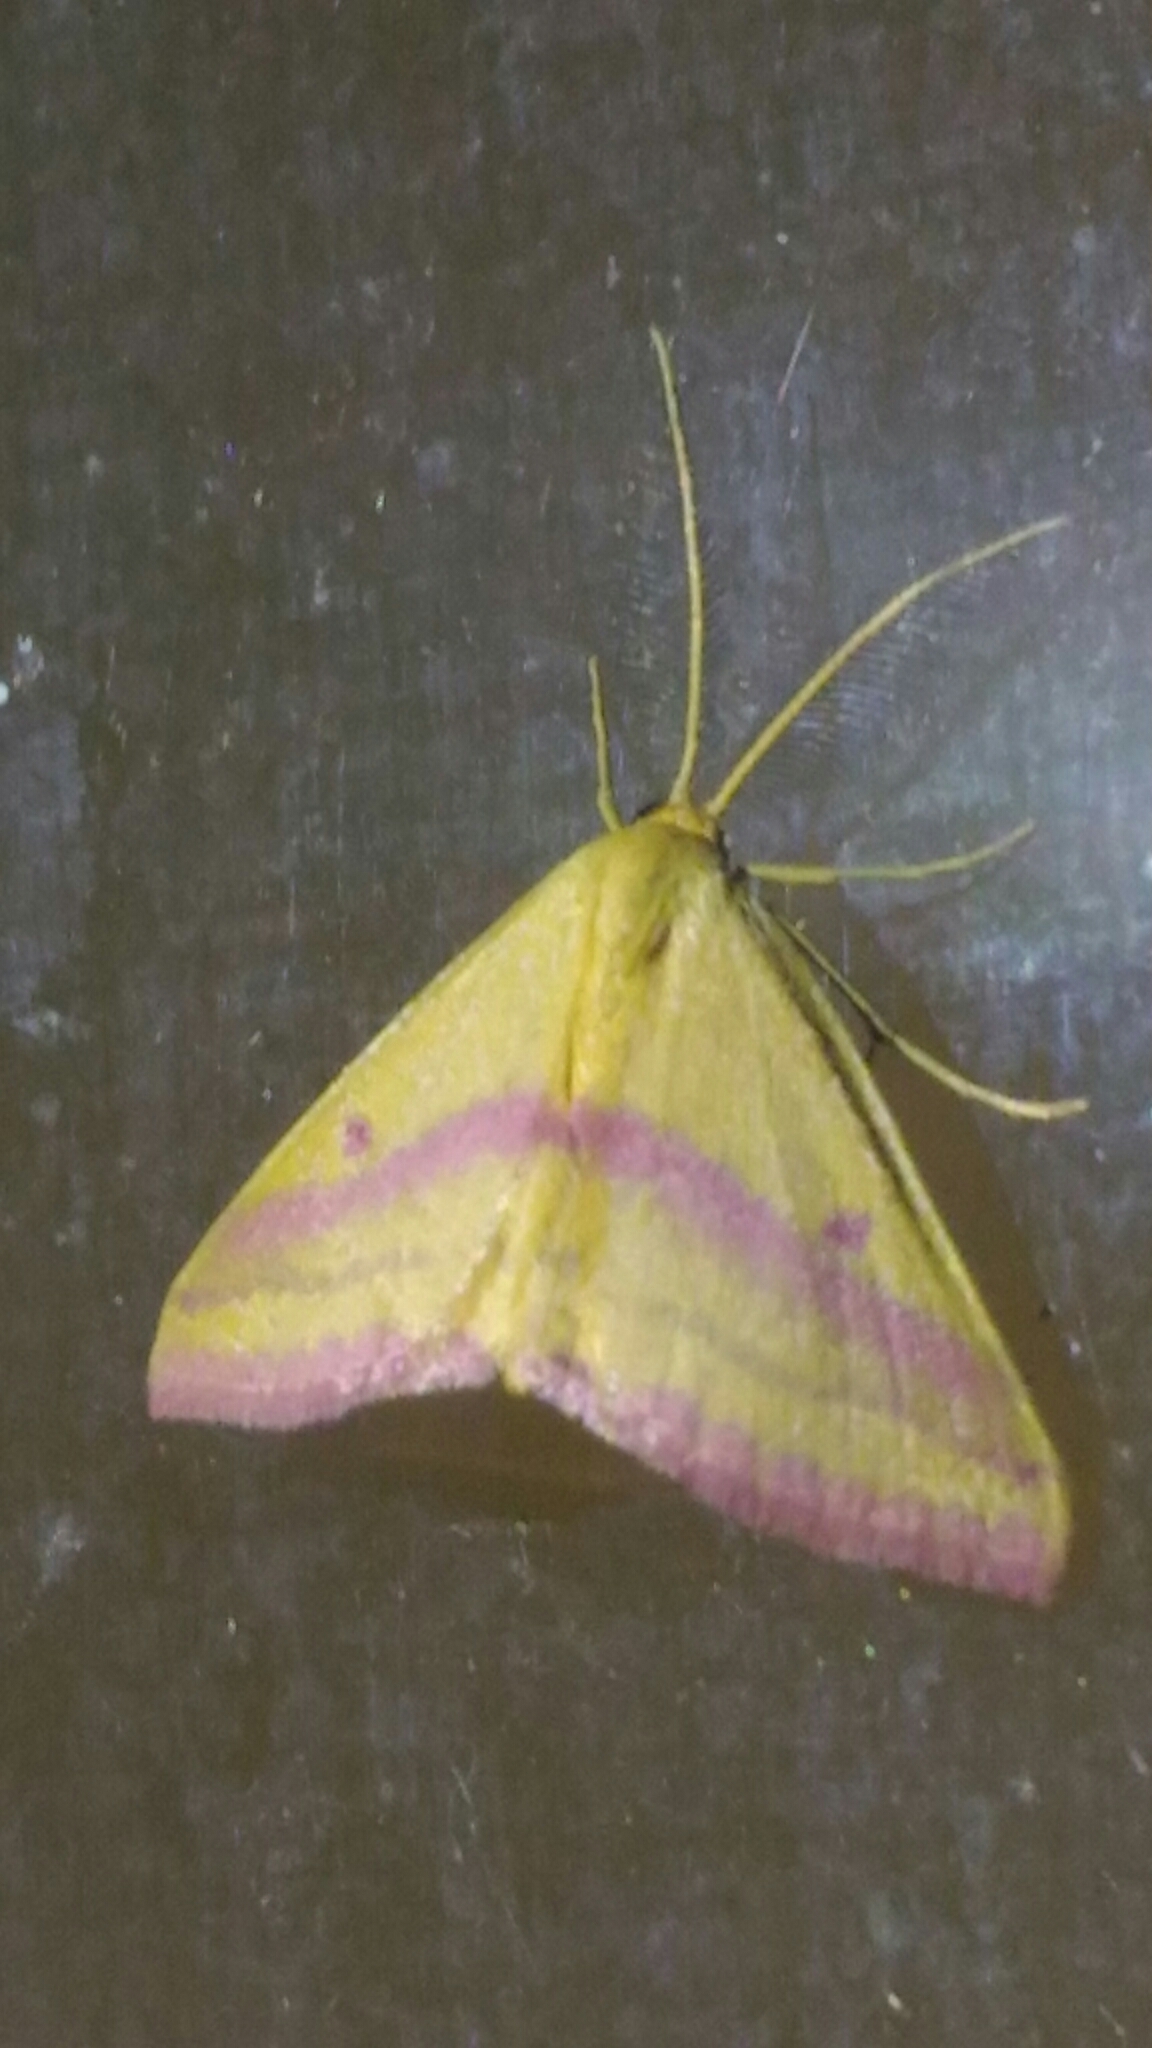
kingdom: Animalia
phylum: Arthropoda
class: Insecta
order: Lepidoptera
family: Geometridae
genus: Haematopis
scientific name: Haematopis grataria
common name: Chickweed geometer
